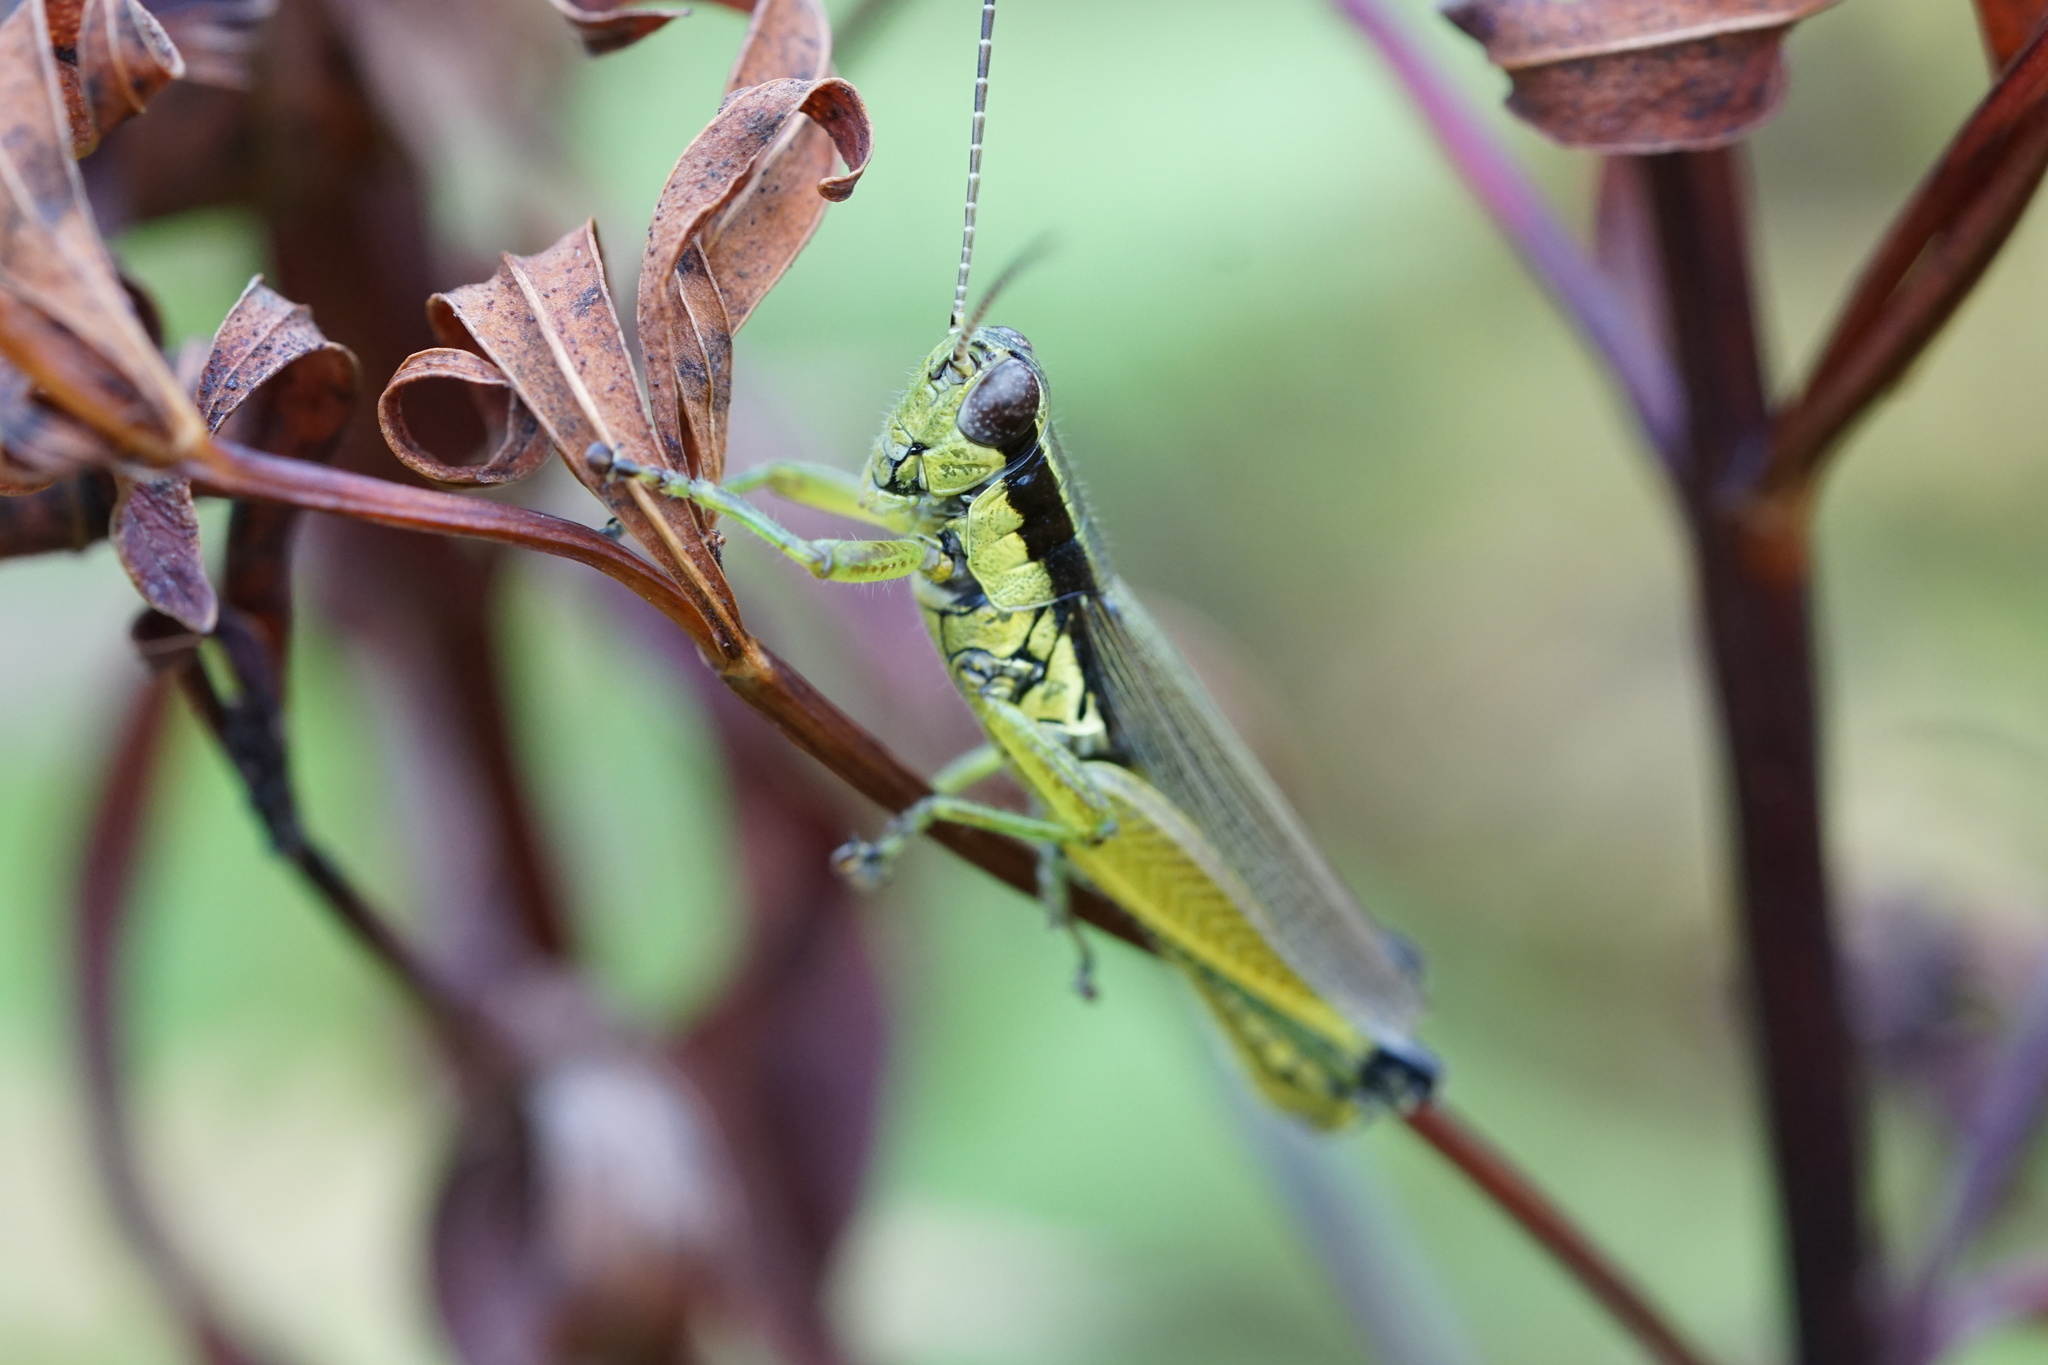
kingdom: Animalia
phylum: Arthropoda
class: Insecta
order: Orthoptera
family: Acrididae
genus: Paroxya
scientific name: Paroxya clavuligera
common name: Olive-green swamp grasshopper
